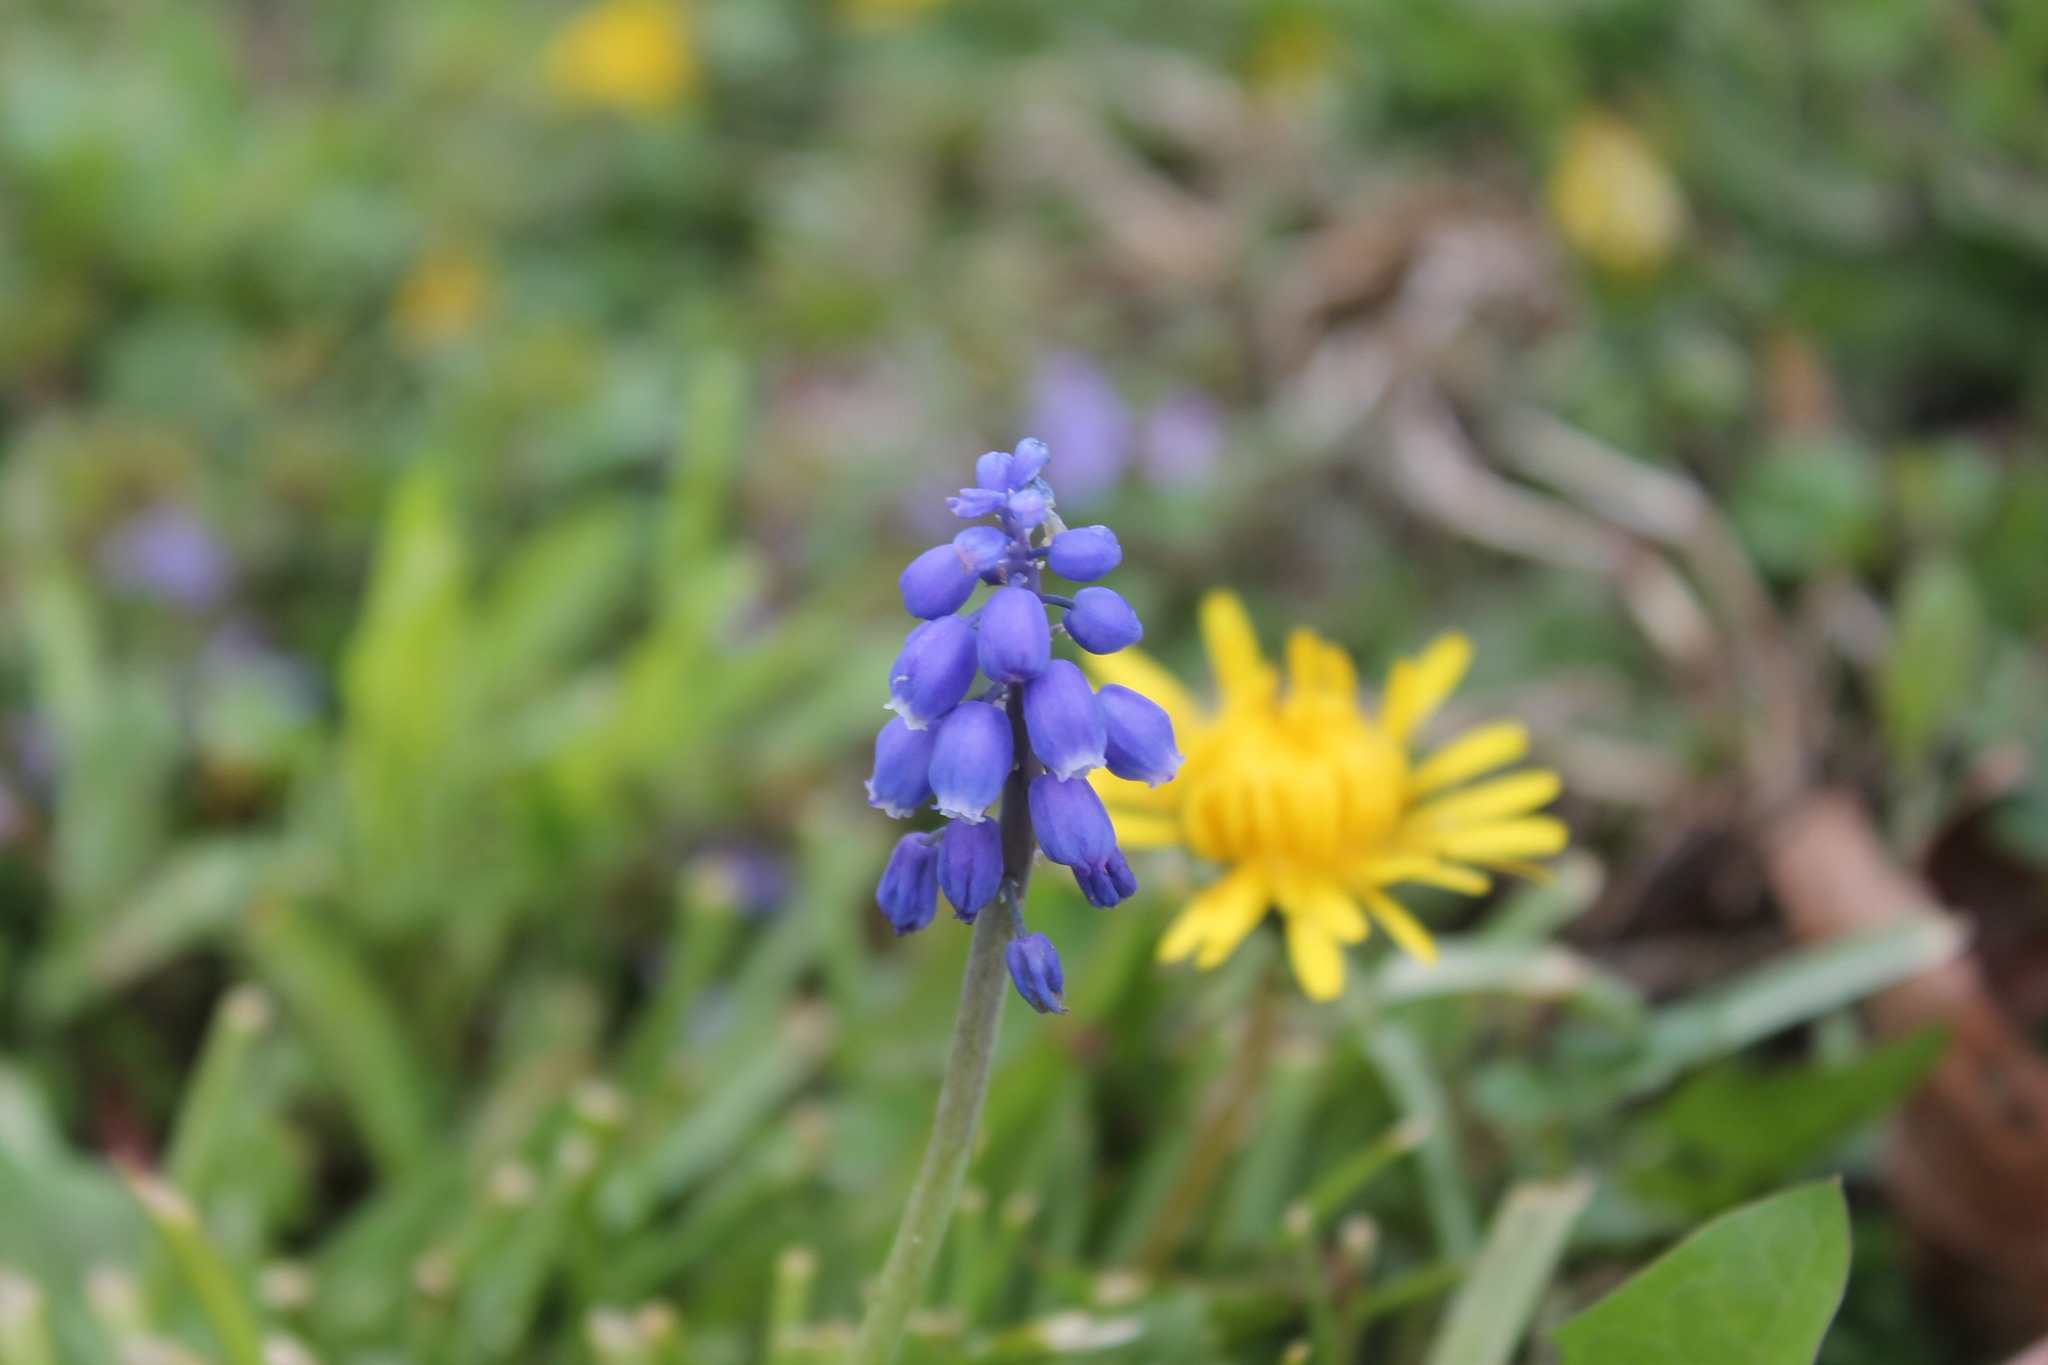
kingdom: Plantae
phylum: Tracheophyta
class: Liliopsida
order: Asparagales
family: Asparagaceae
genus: Muscari
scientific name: Muscari botryoides
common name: Compact grape-hyacinth
